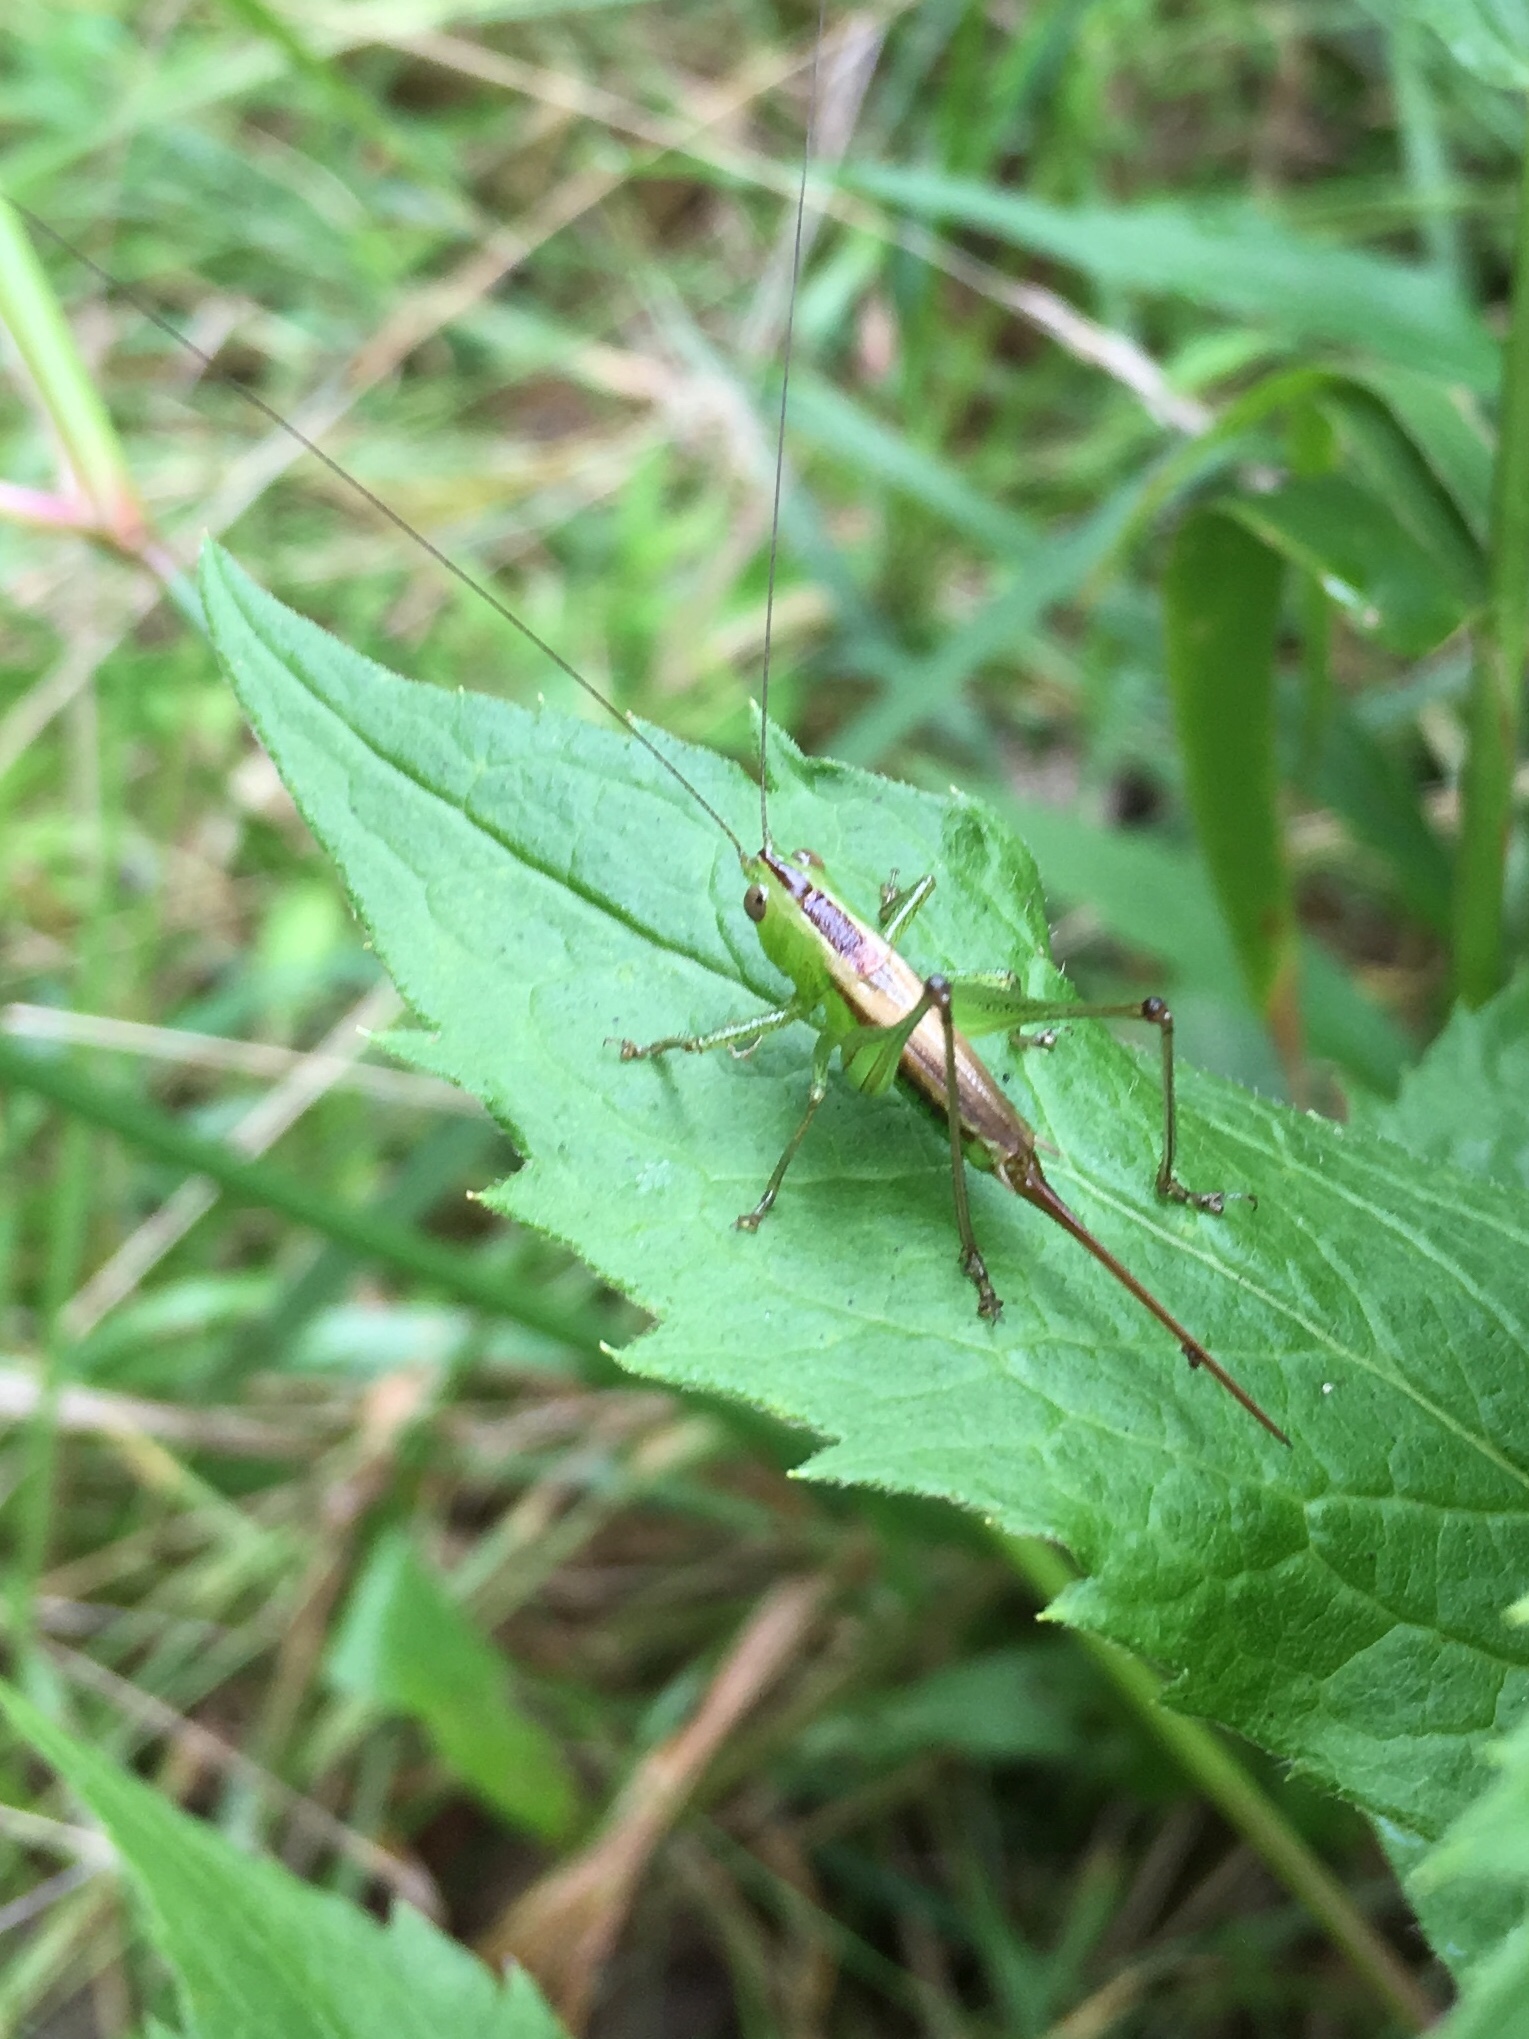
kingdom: Animalia
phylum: Arthropoda
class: Insecta
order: Orthoptera
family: Tettigoniidae
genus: Conocephalus
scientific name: Conocephalus brevipennis
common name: Short-winged meadow katydid
